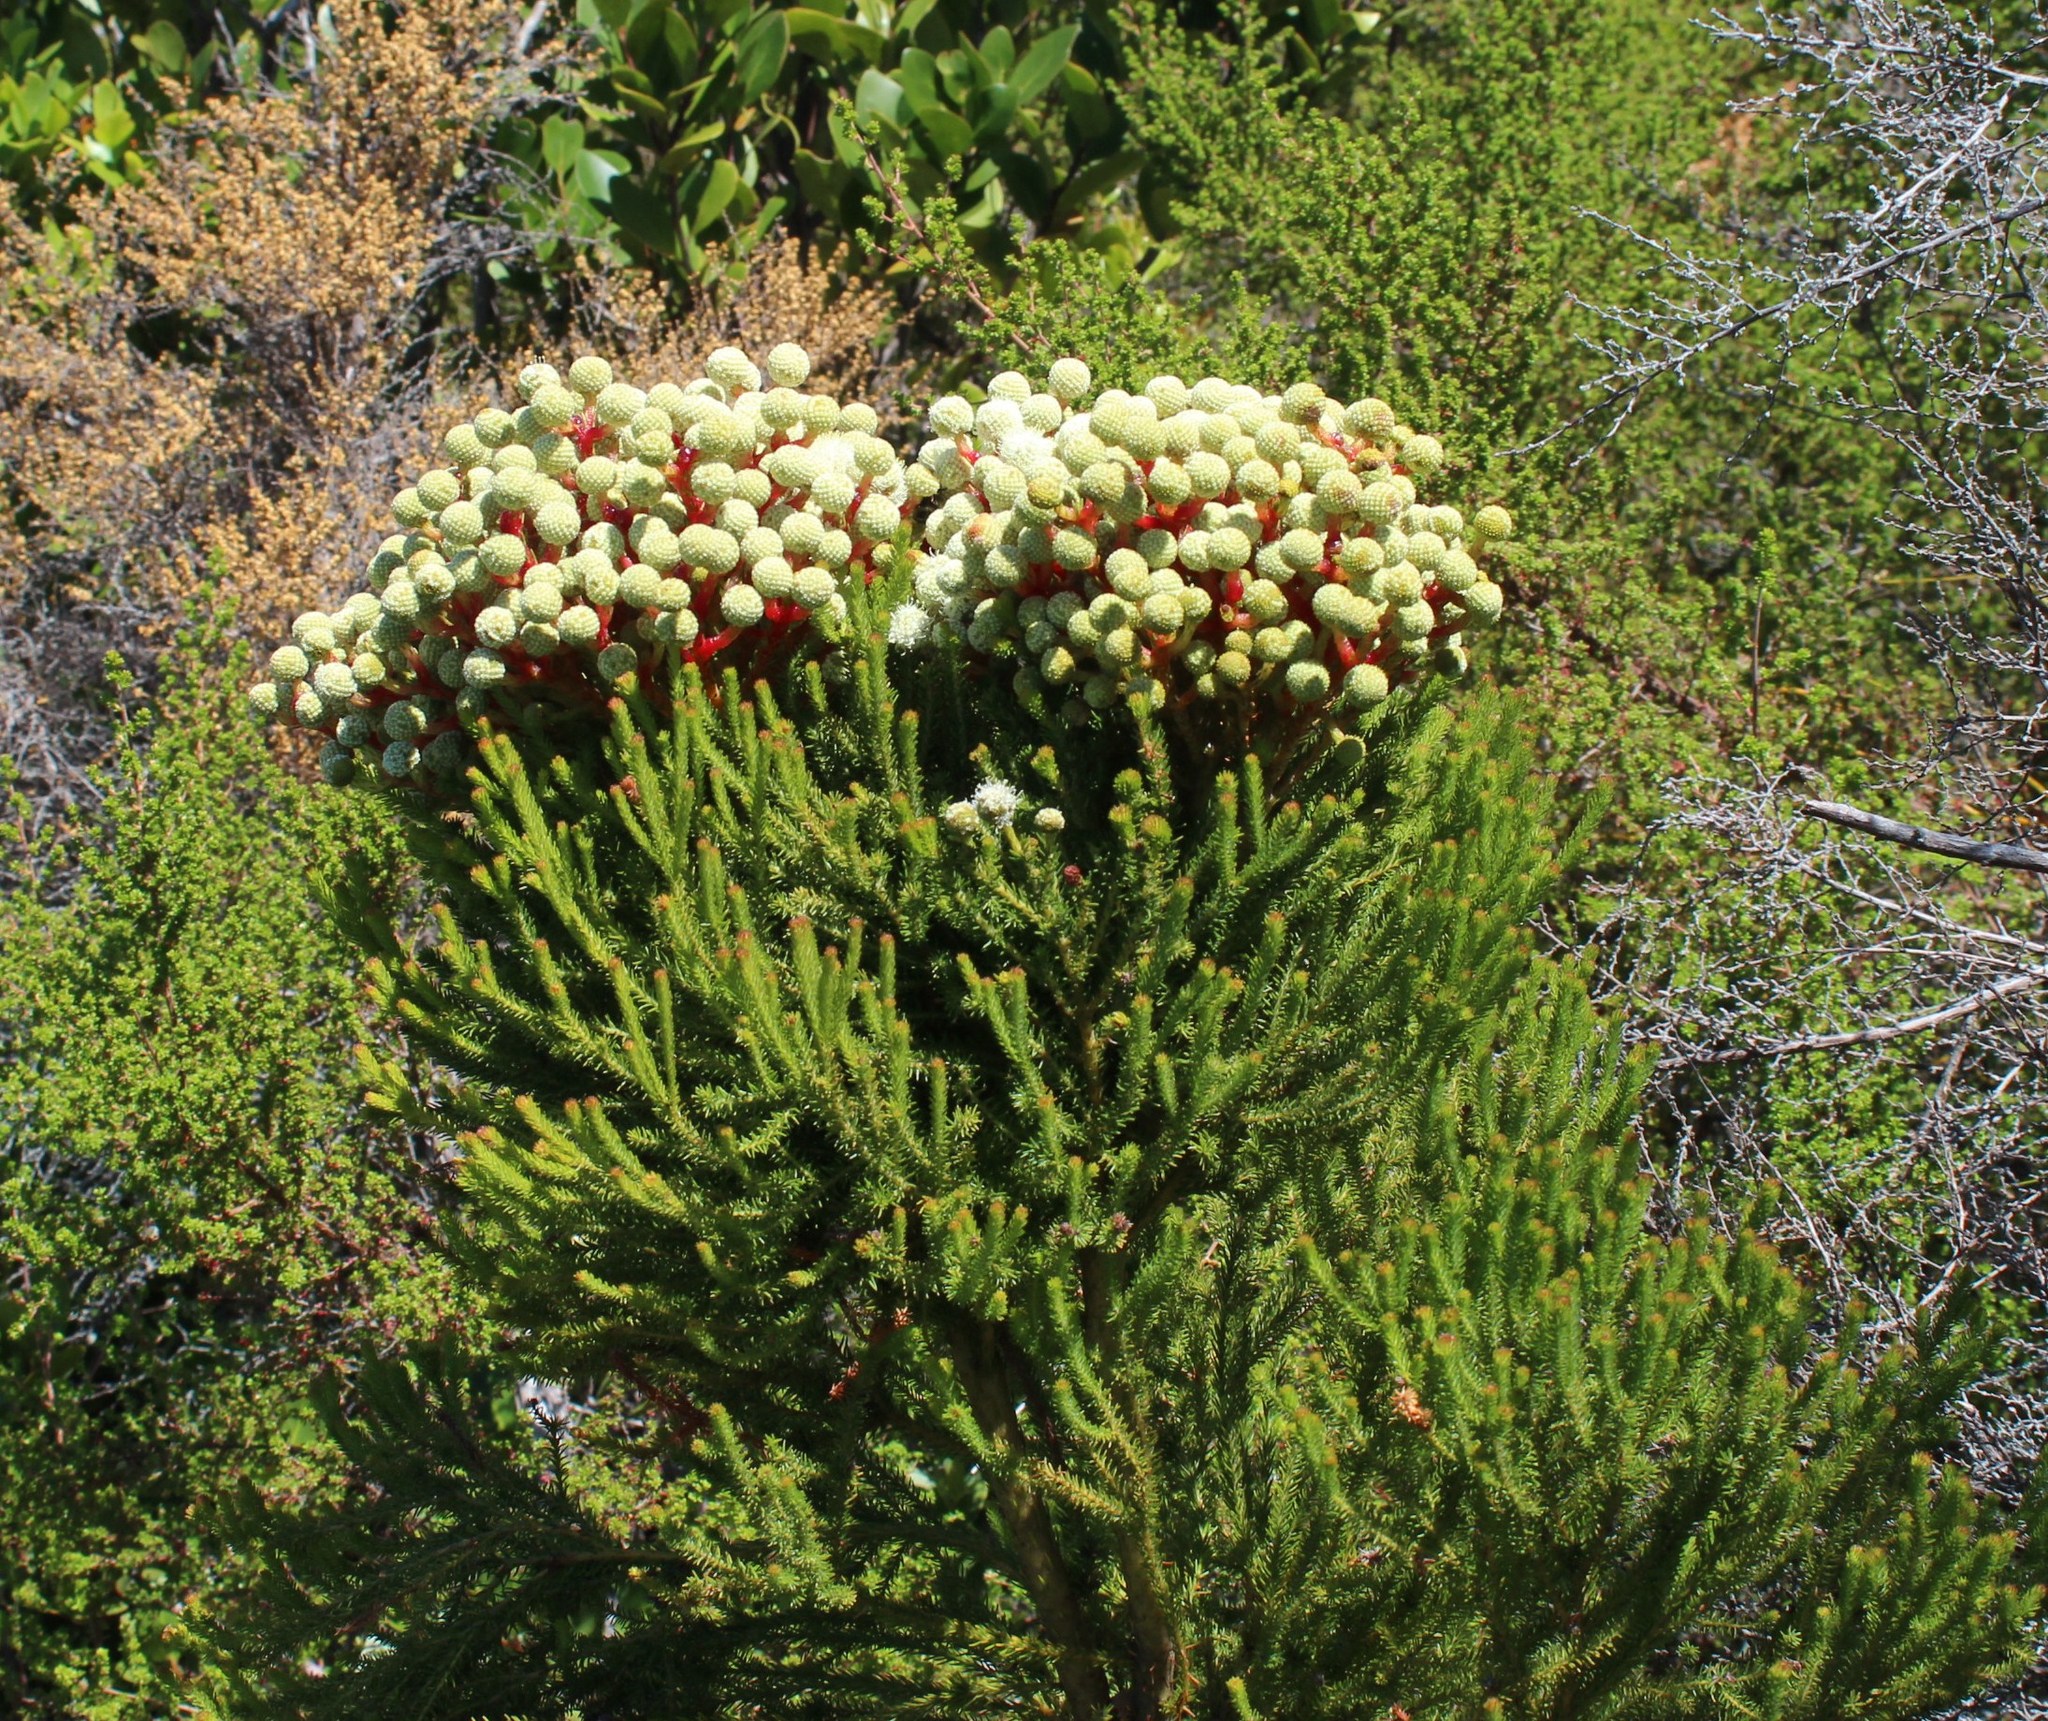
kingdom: Plantae
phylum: Tracheophyta
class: Magnoliopsida
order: Bruniales
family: Bruniaceae
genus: Berzelia
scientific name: Berzelia intermedia
